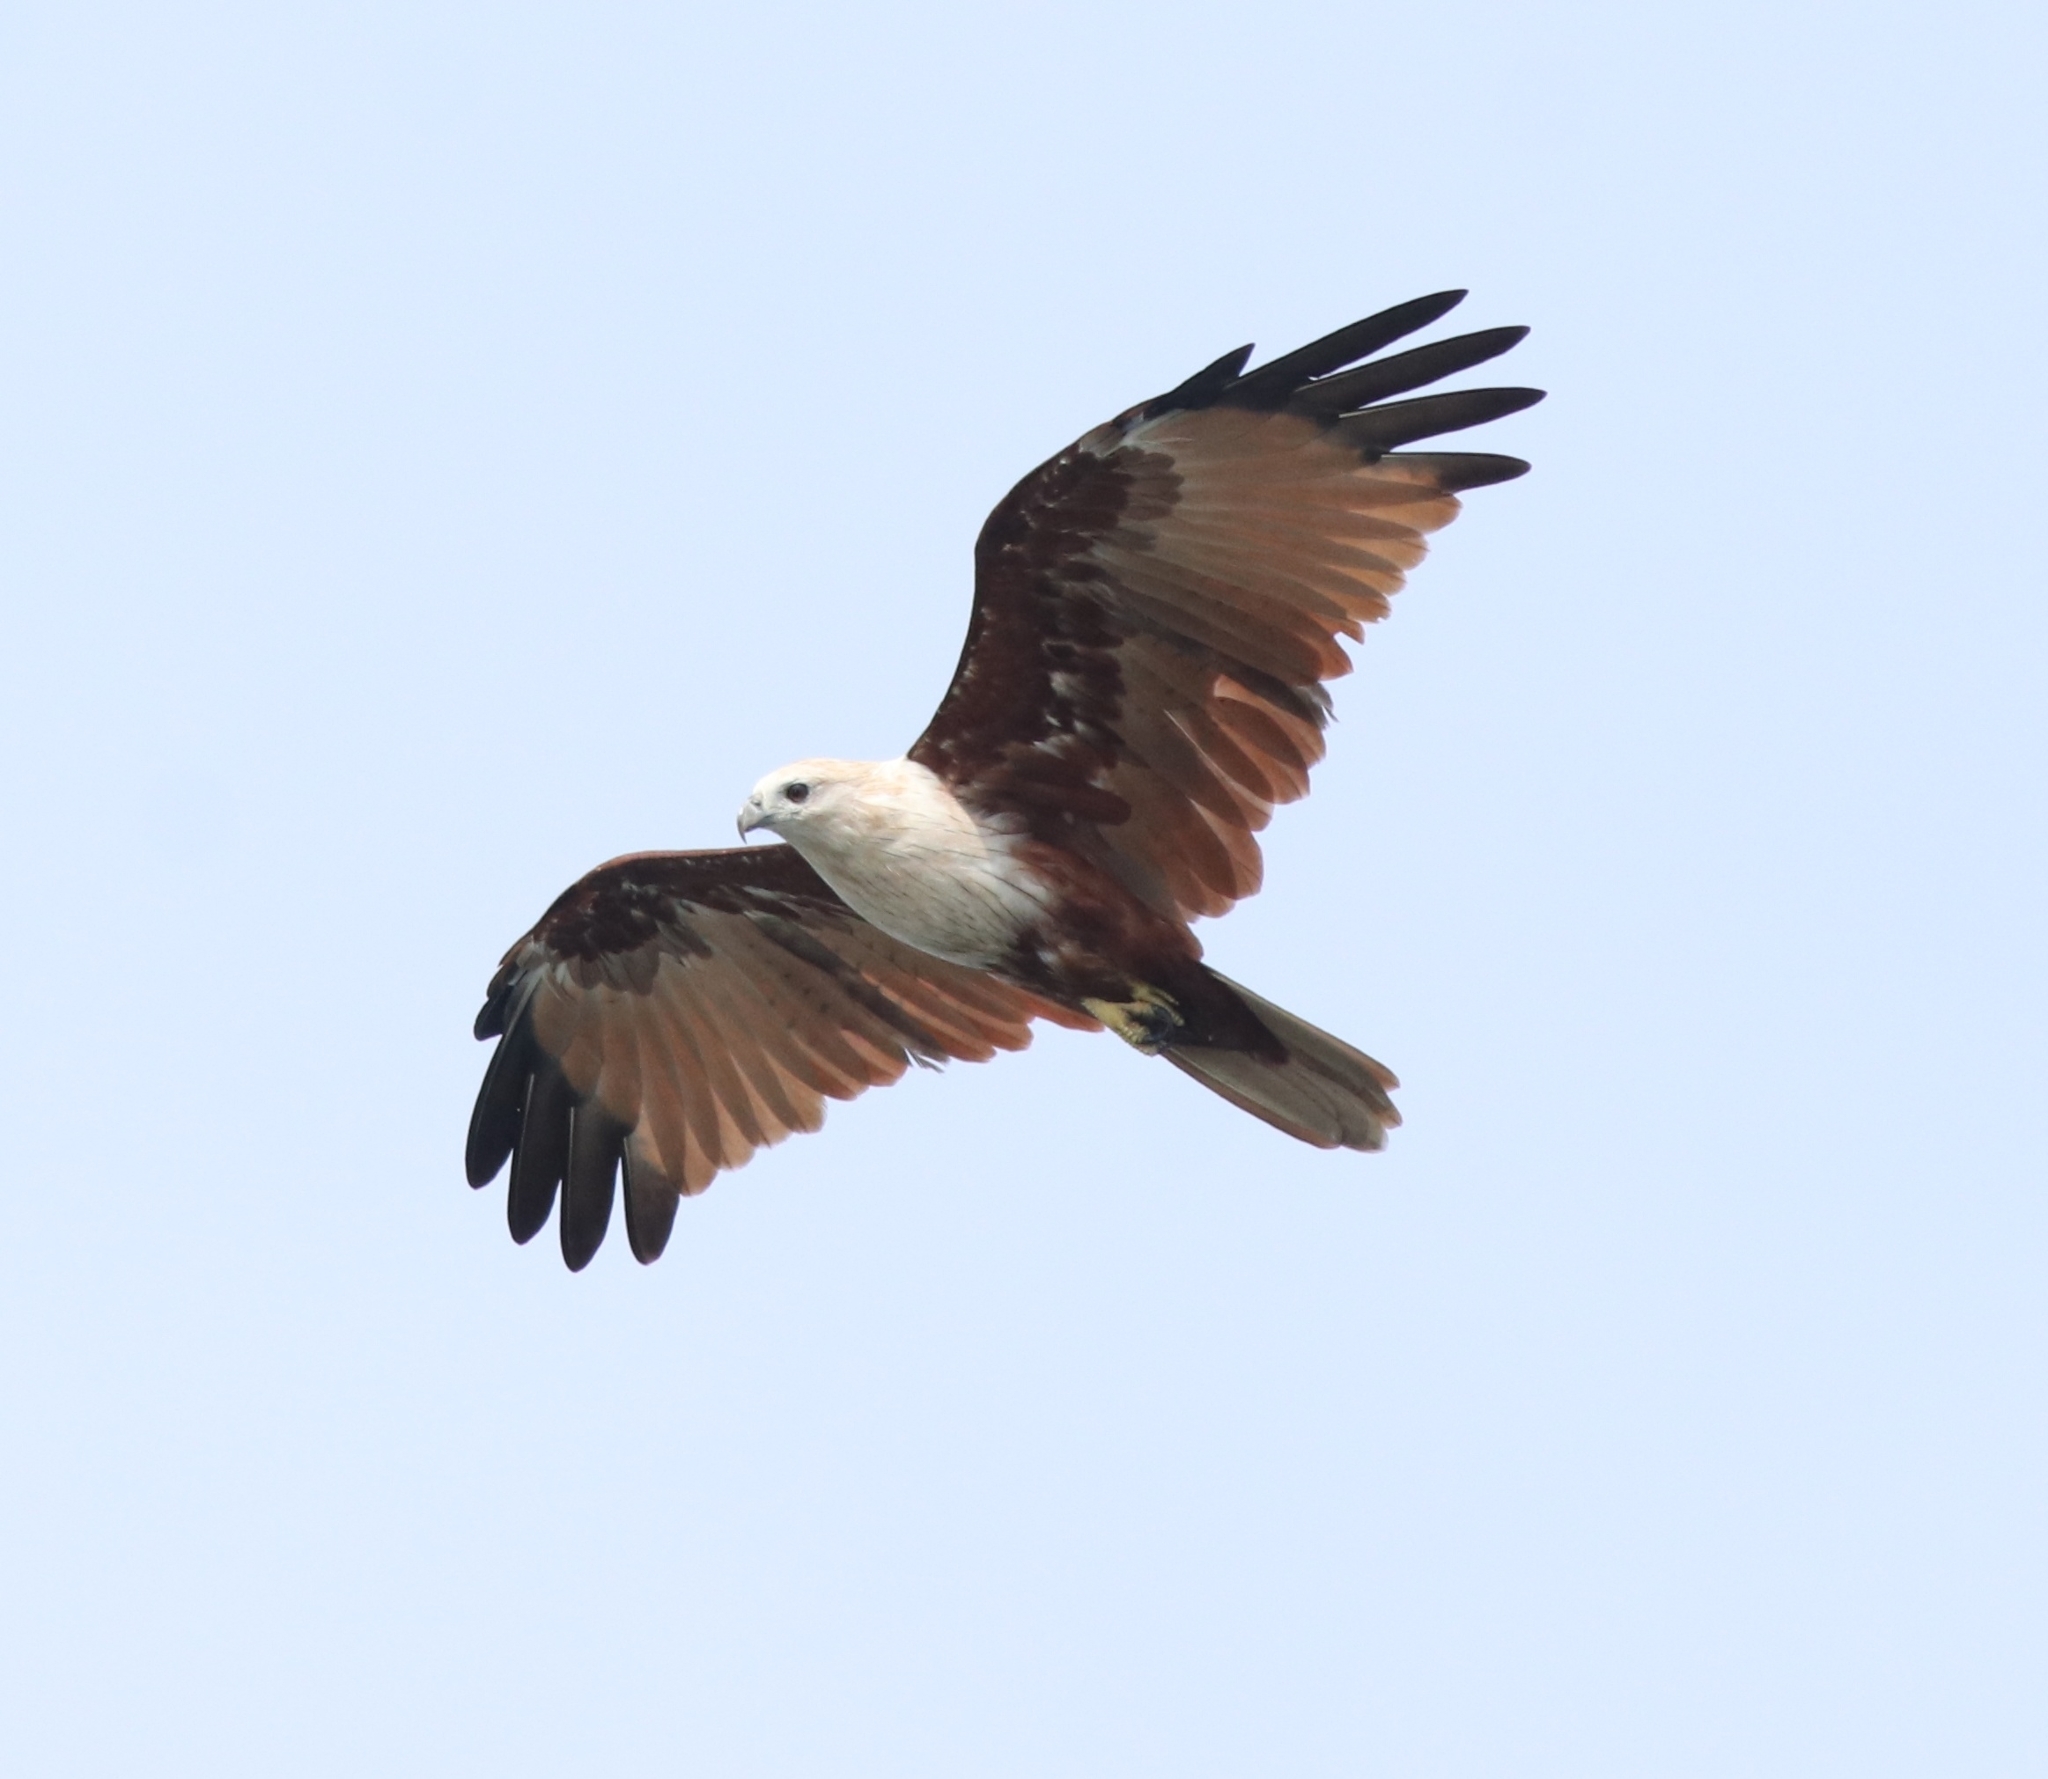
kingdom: Animalia
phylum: Chordata
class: Aves
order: Accipitriformes
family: Accipitridae
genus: Haliastur
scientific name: Haliastur indus
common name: Brahminy kite
